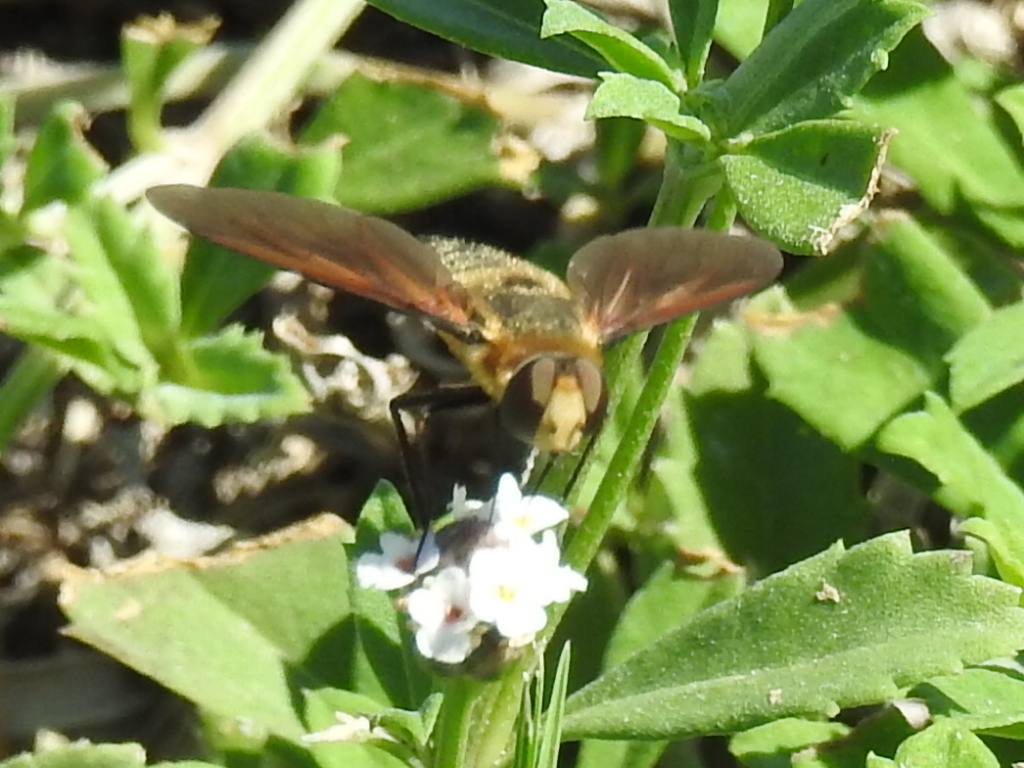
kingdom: Animalia
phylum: Arthropoda
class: Insecta
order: Diptera
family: Bombyliidae
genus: Poecilanthrax
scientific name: Poecilanthrax lucifer
